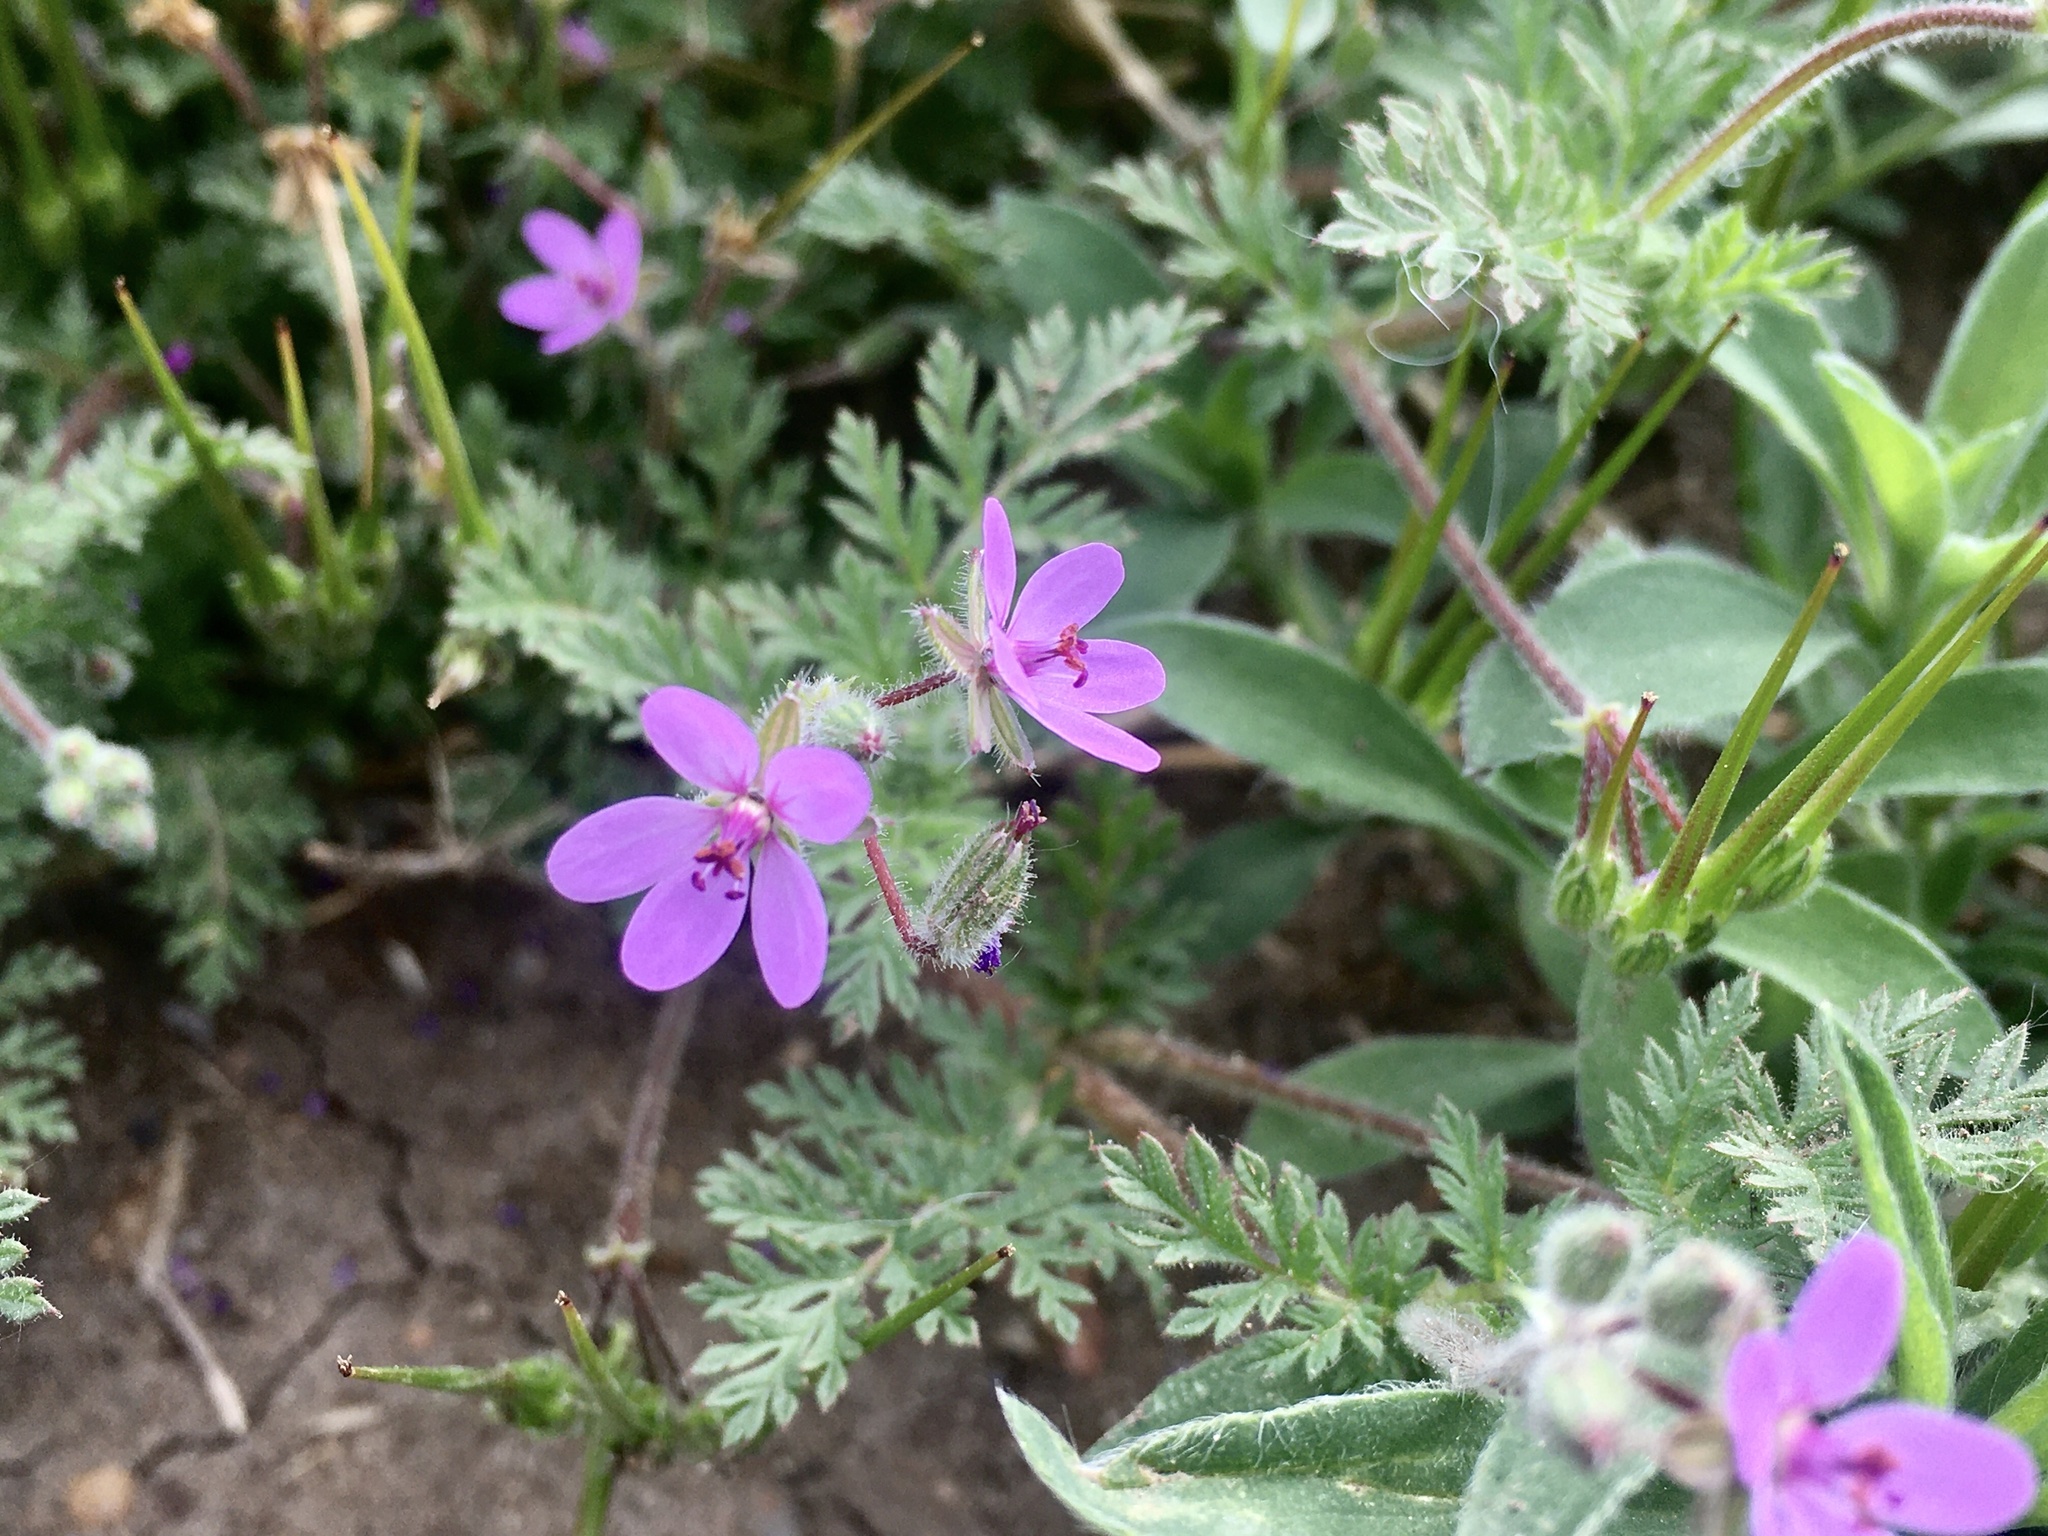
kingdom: Plantae
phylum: Tracheophyta
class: Magnoliopsida
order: Geraniales
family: Geraniaceae
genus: Erodium
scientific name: Erodium cicutarium
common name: Common stork's-bill
